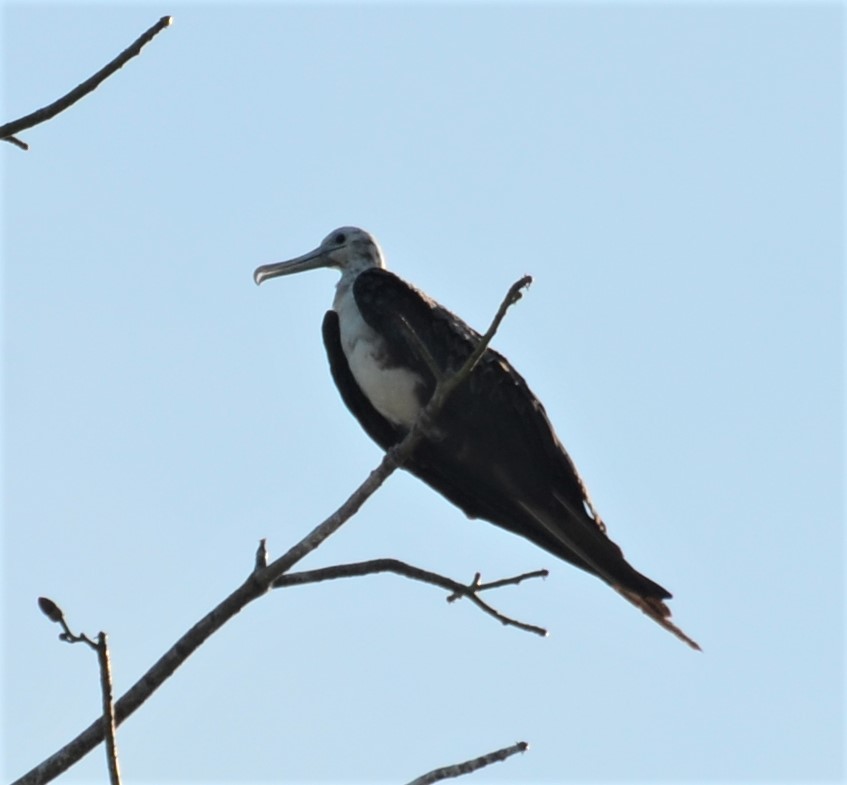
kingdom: Animalia
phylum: Chordata
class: Aves
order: Suliformes
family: Fregatidae
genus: Fregata
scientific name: Fregata magnificens
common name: Magnificent frigatebird
